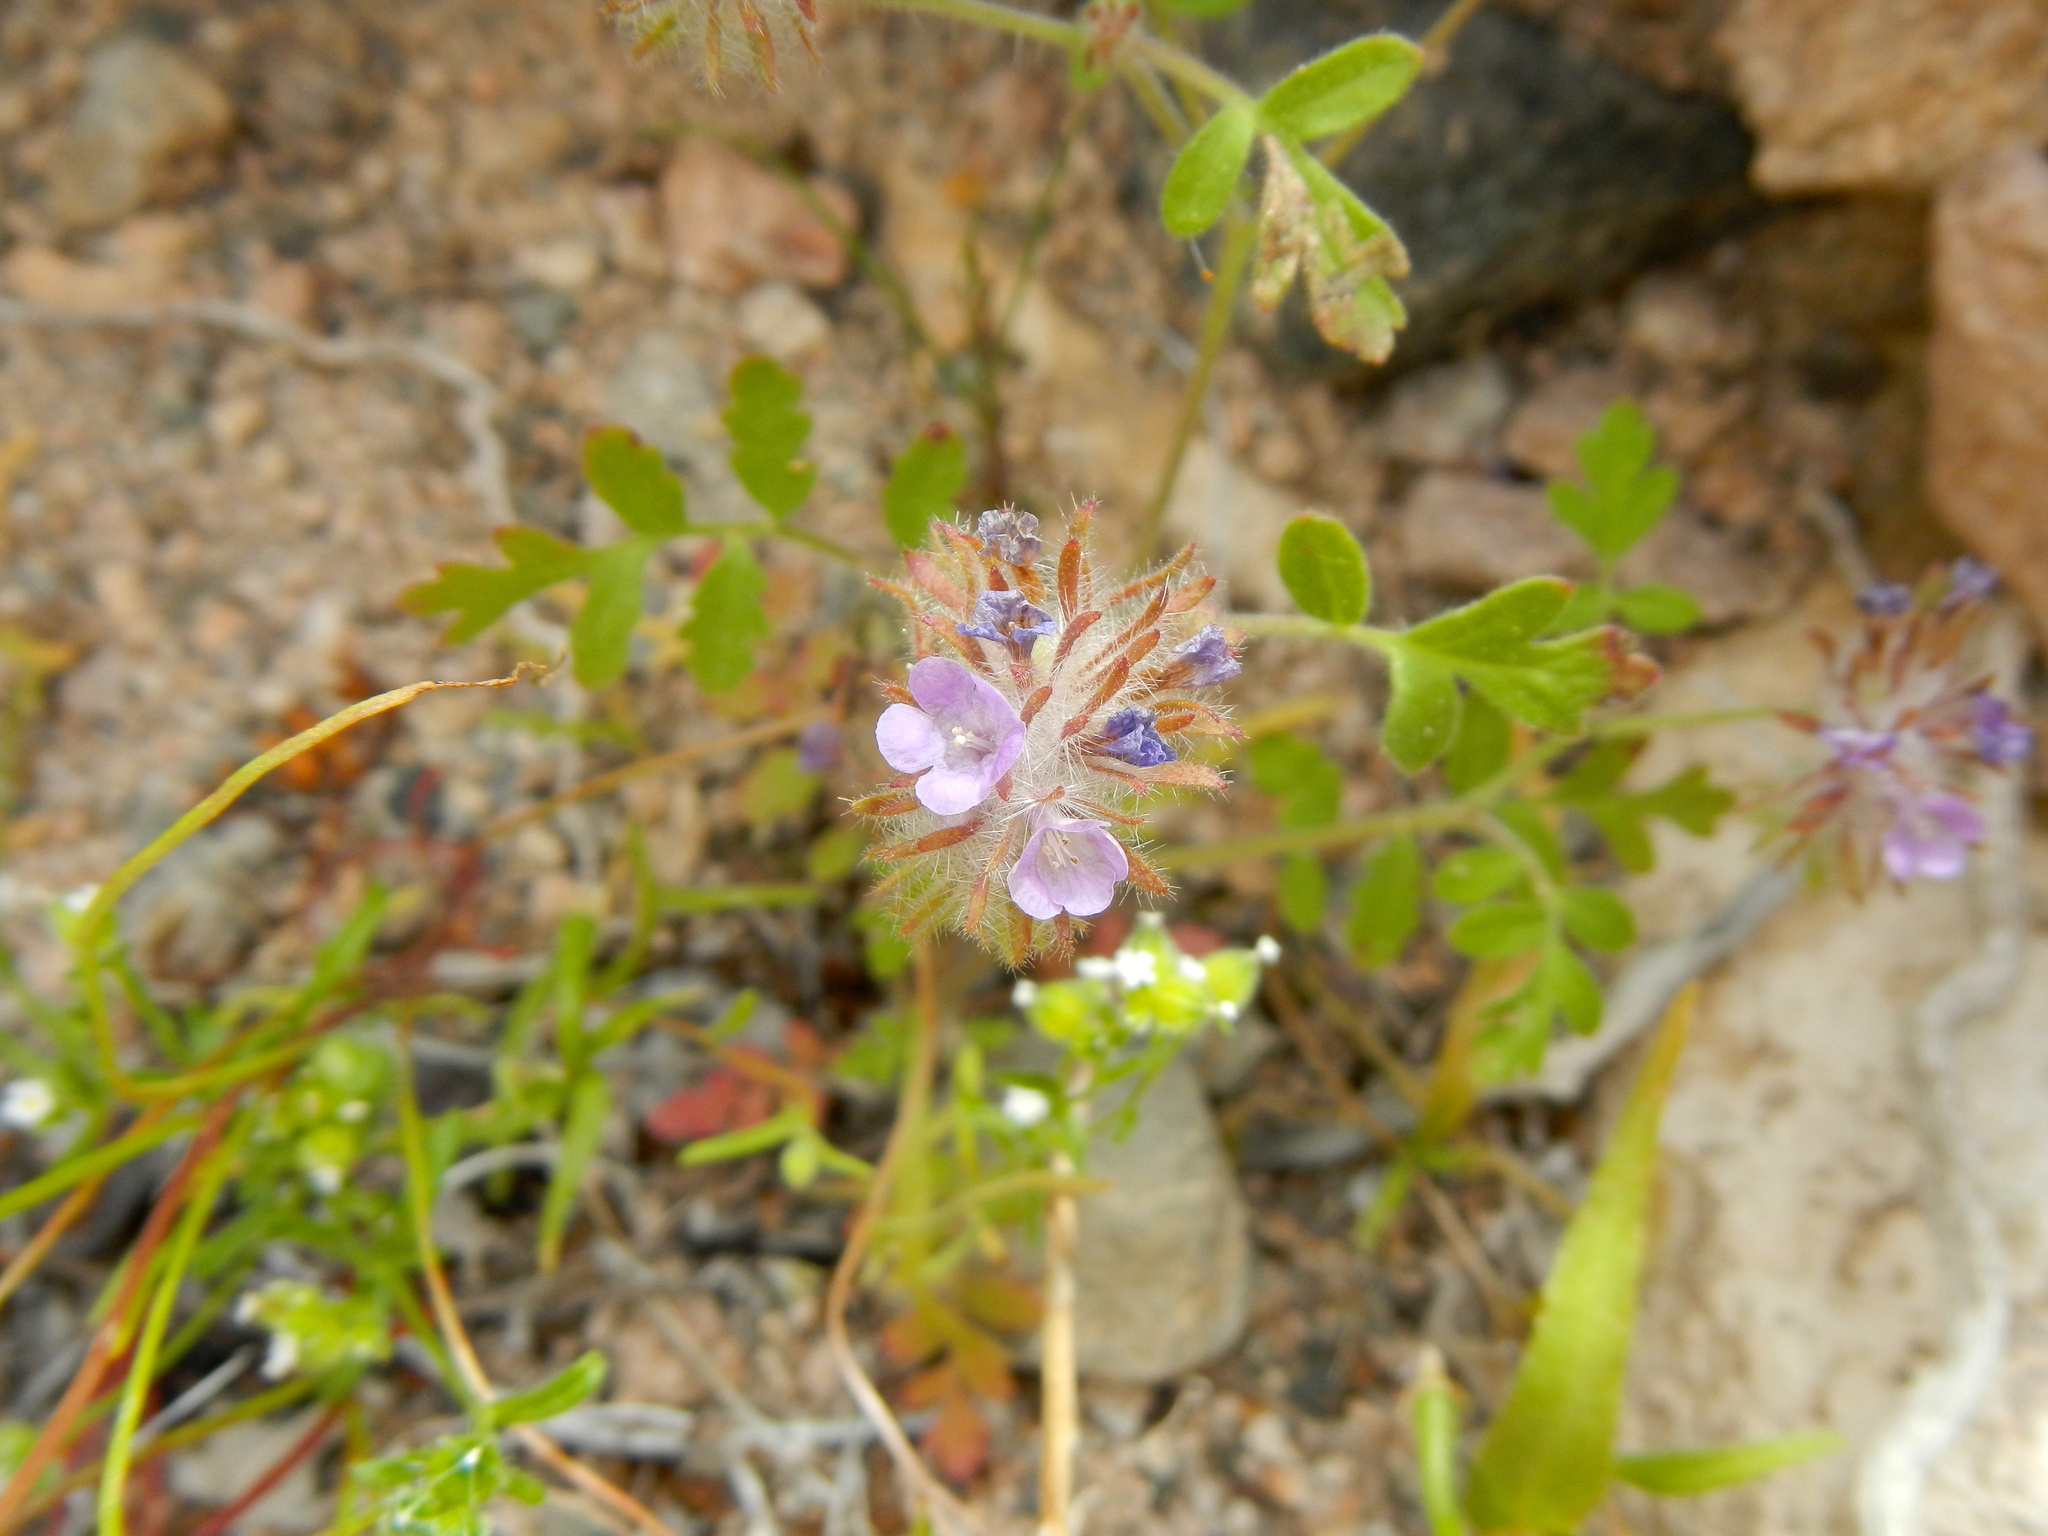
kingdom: Plantae
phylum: Tracheophyta
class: Magnoliopsida
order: Boraginales
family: Hydrophyllaceae
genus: Phacelia
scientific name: Phacelia cryptantha
